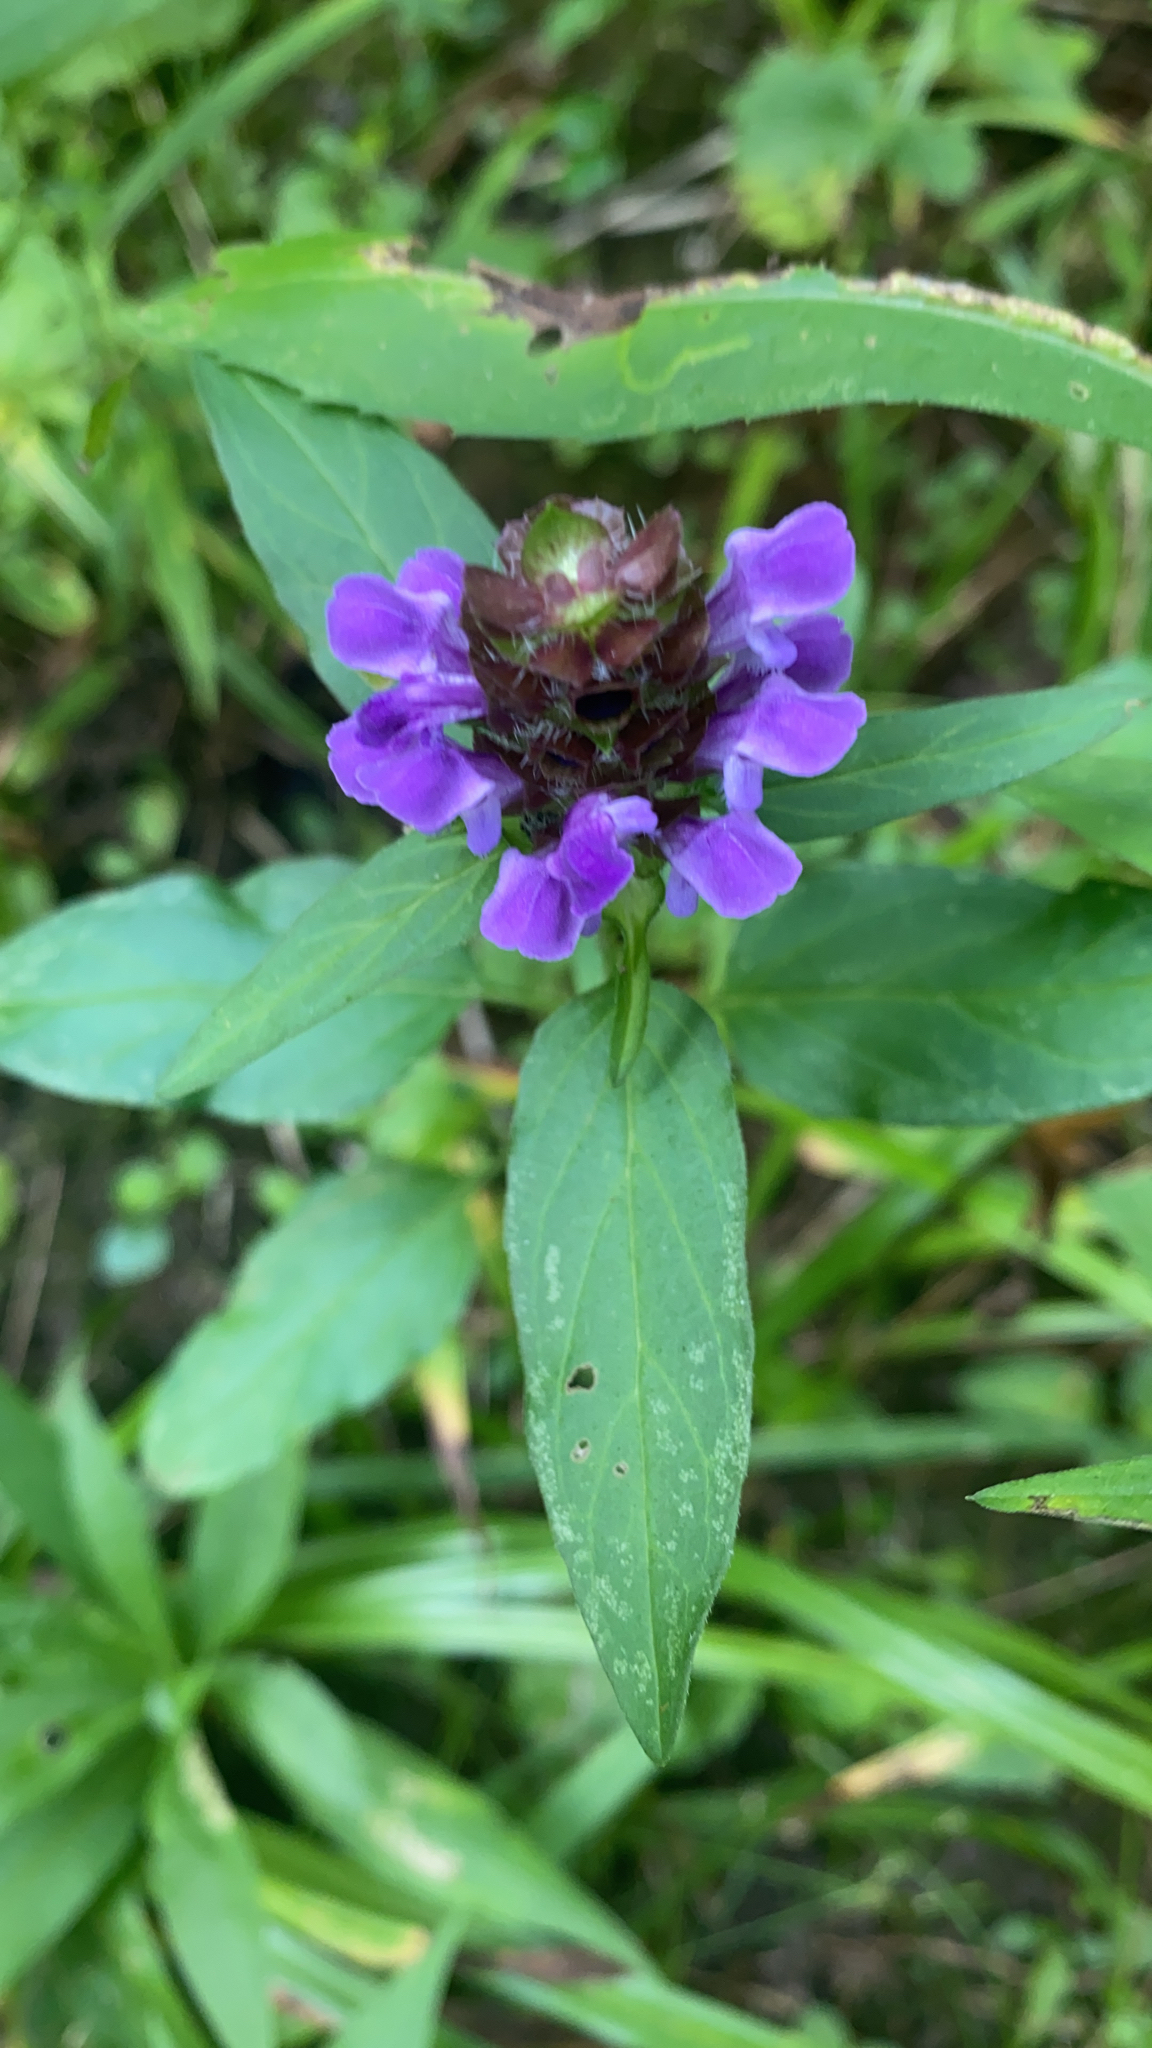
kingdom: Plantae
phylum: Tracheophyta
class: Magnoliopsida
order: Lamiales
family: Lamiaceae
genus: Prunella
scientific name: Prunella vulgaris
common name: Heal-all
